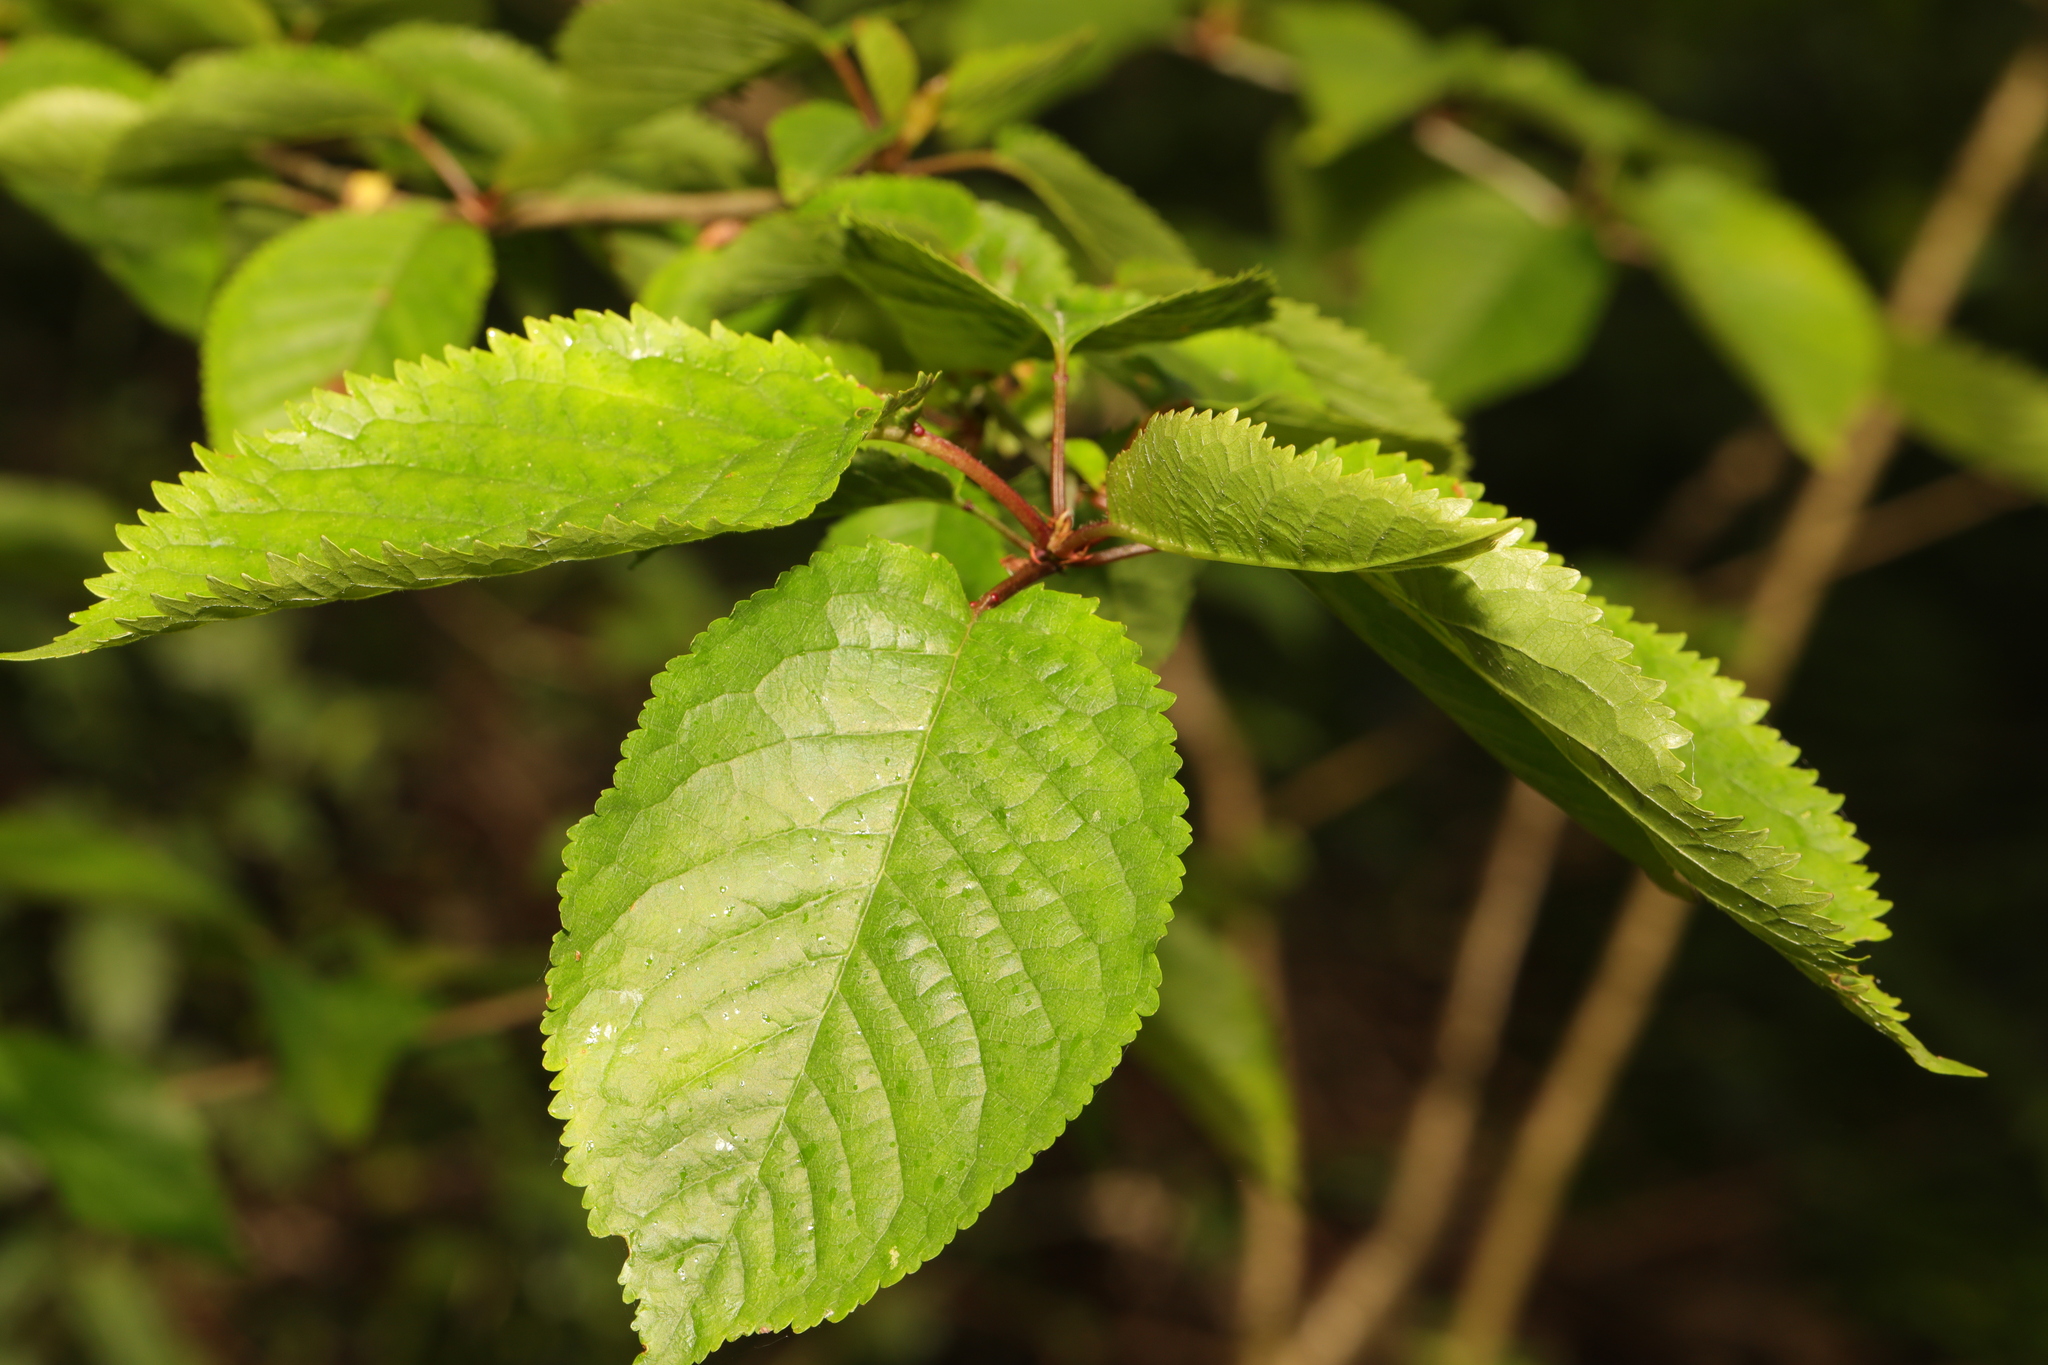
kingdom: Plantae
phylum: Tracheophyta
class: Magnoliopsida
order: Rosales
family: Rosaceae
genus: Prunus
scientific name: Prunus avium
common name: Sweet cherry
